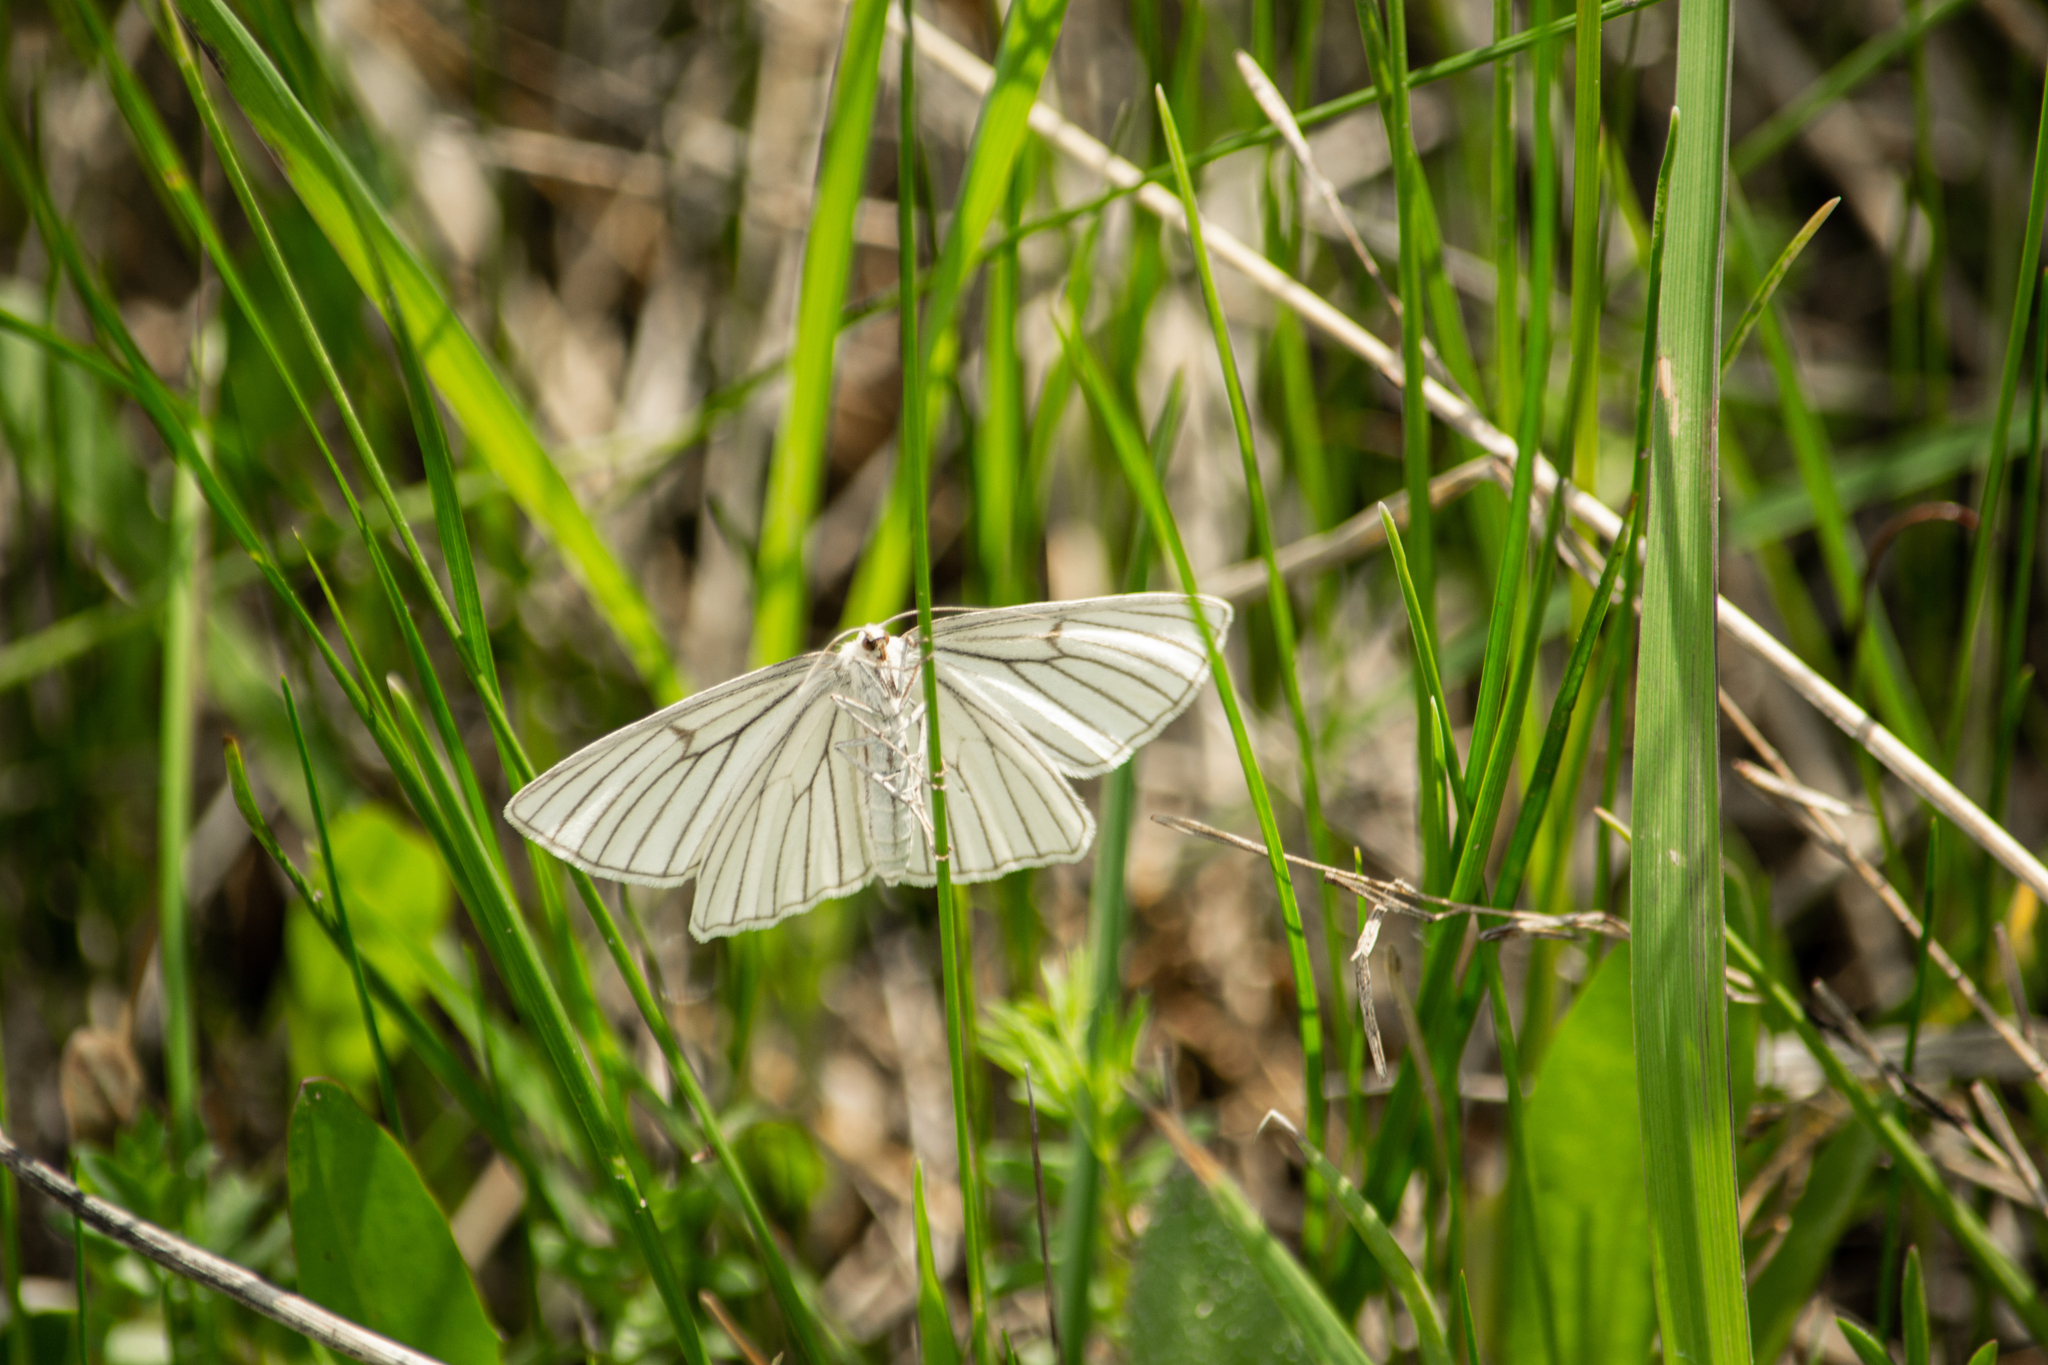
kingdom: Animalia
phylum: Arthropoda
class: Insecta
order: Lepidoptera
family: Geometridae
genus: Siona
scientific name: Siona lineata
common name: Black-veined moth
